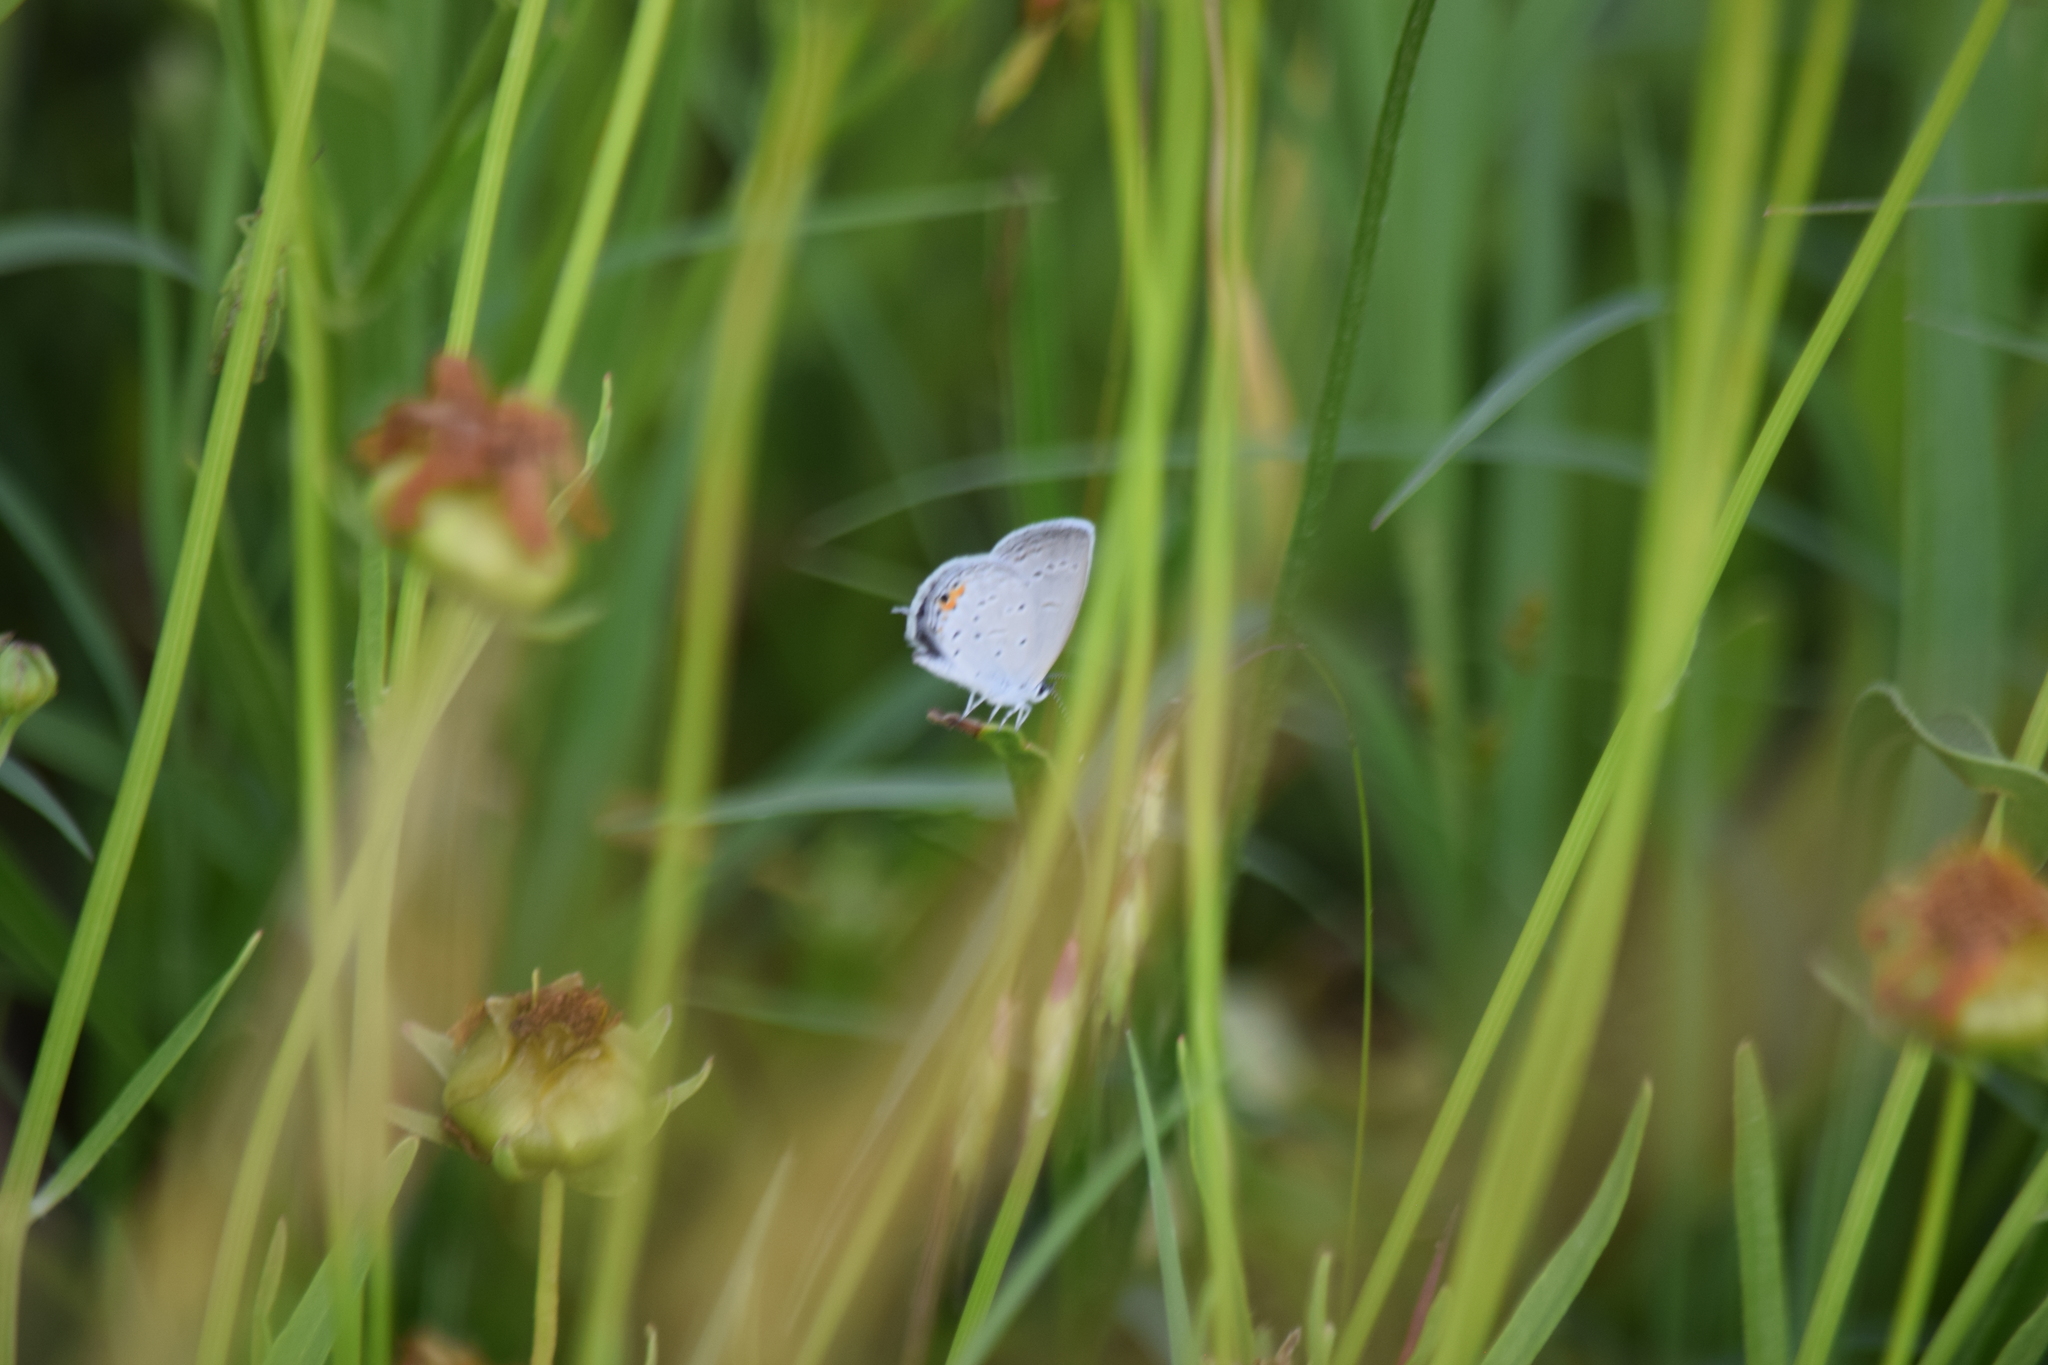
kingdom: Animalia
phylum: Arthropoda
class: Insecta
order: Lepidoptera
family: Lycaenidae
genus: Elkalyce
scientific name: Elkalyce comyntas
